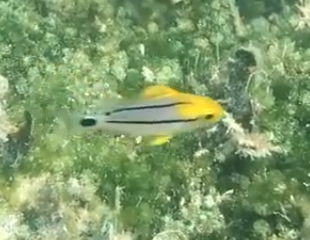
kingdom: Animalia
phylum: Chordata
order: Perciformes
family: Haemulidae
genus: Anisotremus
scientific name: Anisotremus virginicus
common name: Porkfish
